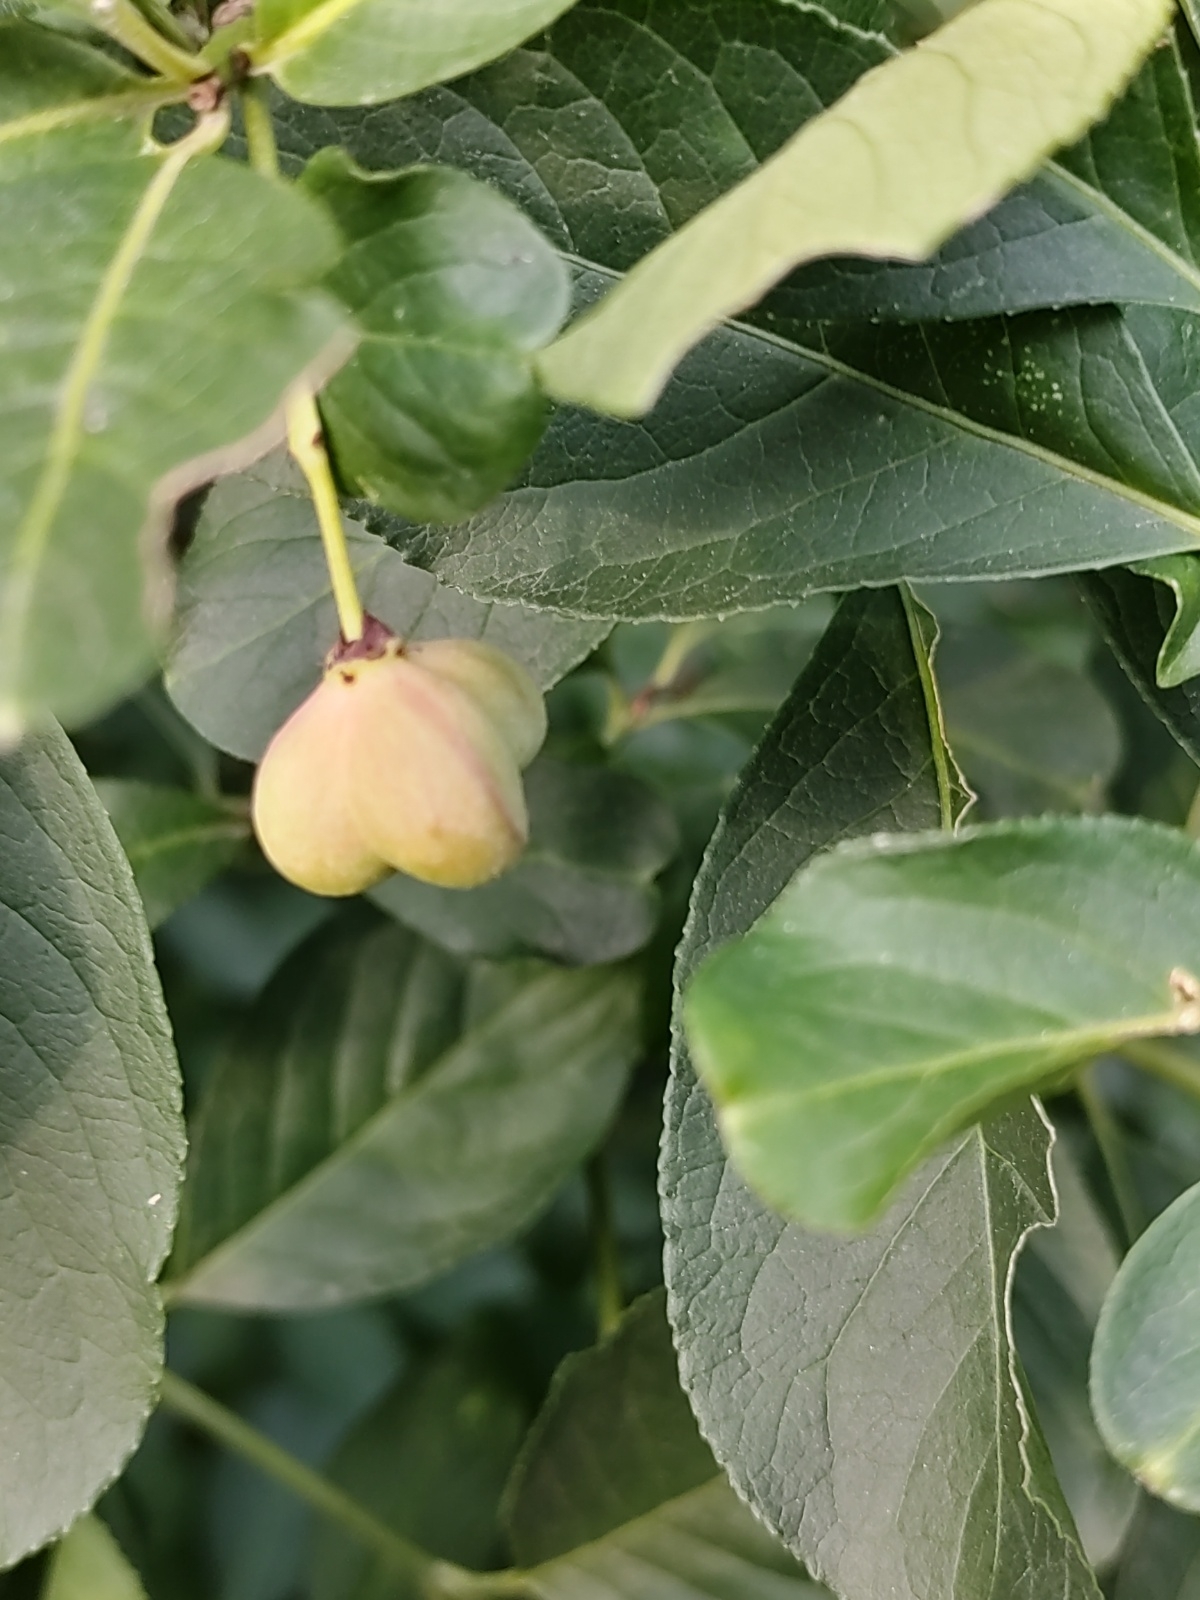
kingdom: Plantae
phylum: Tracheophyta
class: Magnoliopsida
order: Celastrales
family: Celastraceae
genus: Euonymus
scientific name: Euonymus europaeus
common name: Spindle
